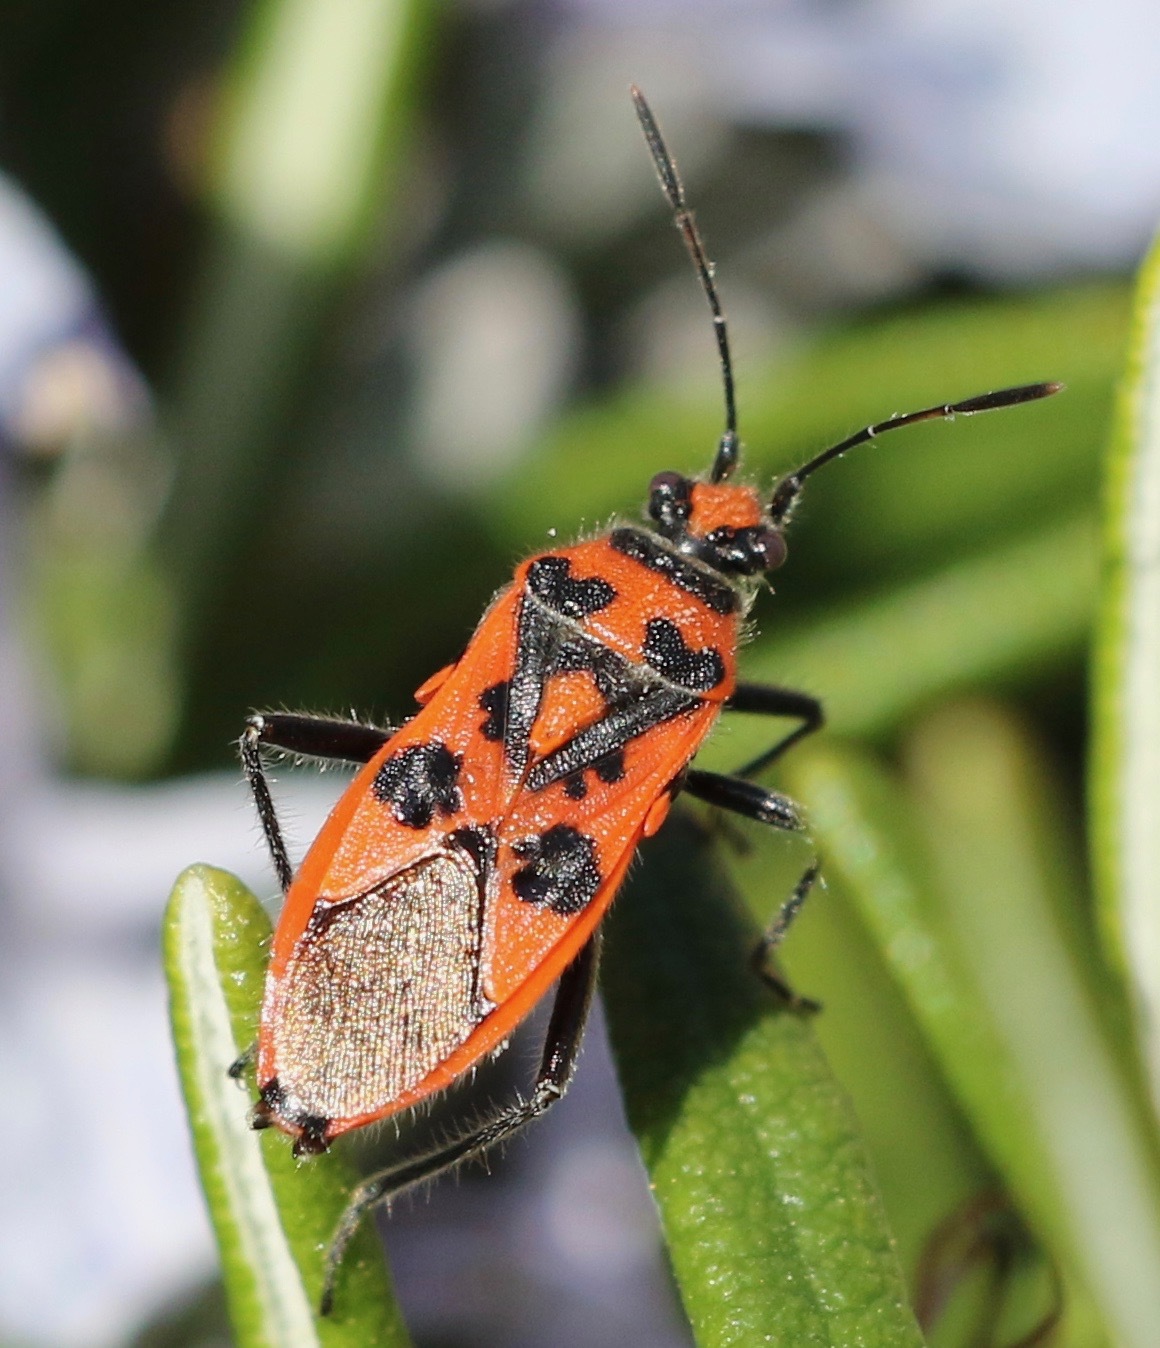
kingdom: Animalia
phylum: Arthropoda
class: Insecta
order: Hemiptera
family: Rhopalidae
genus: Corizus
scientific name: Corizus hyoscyami
